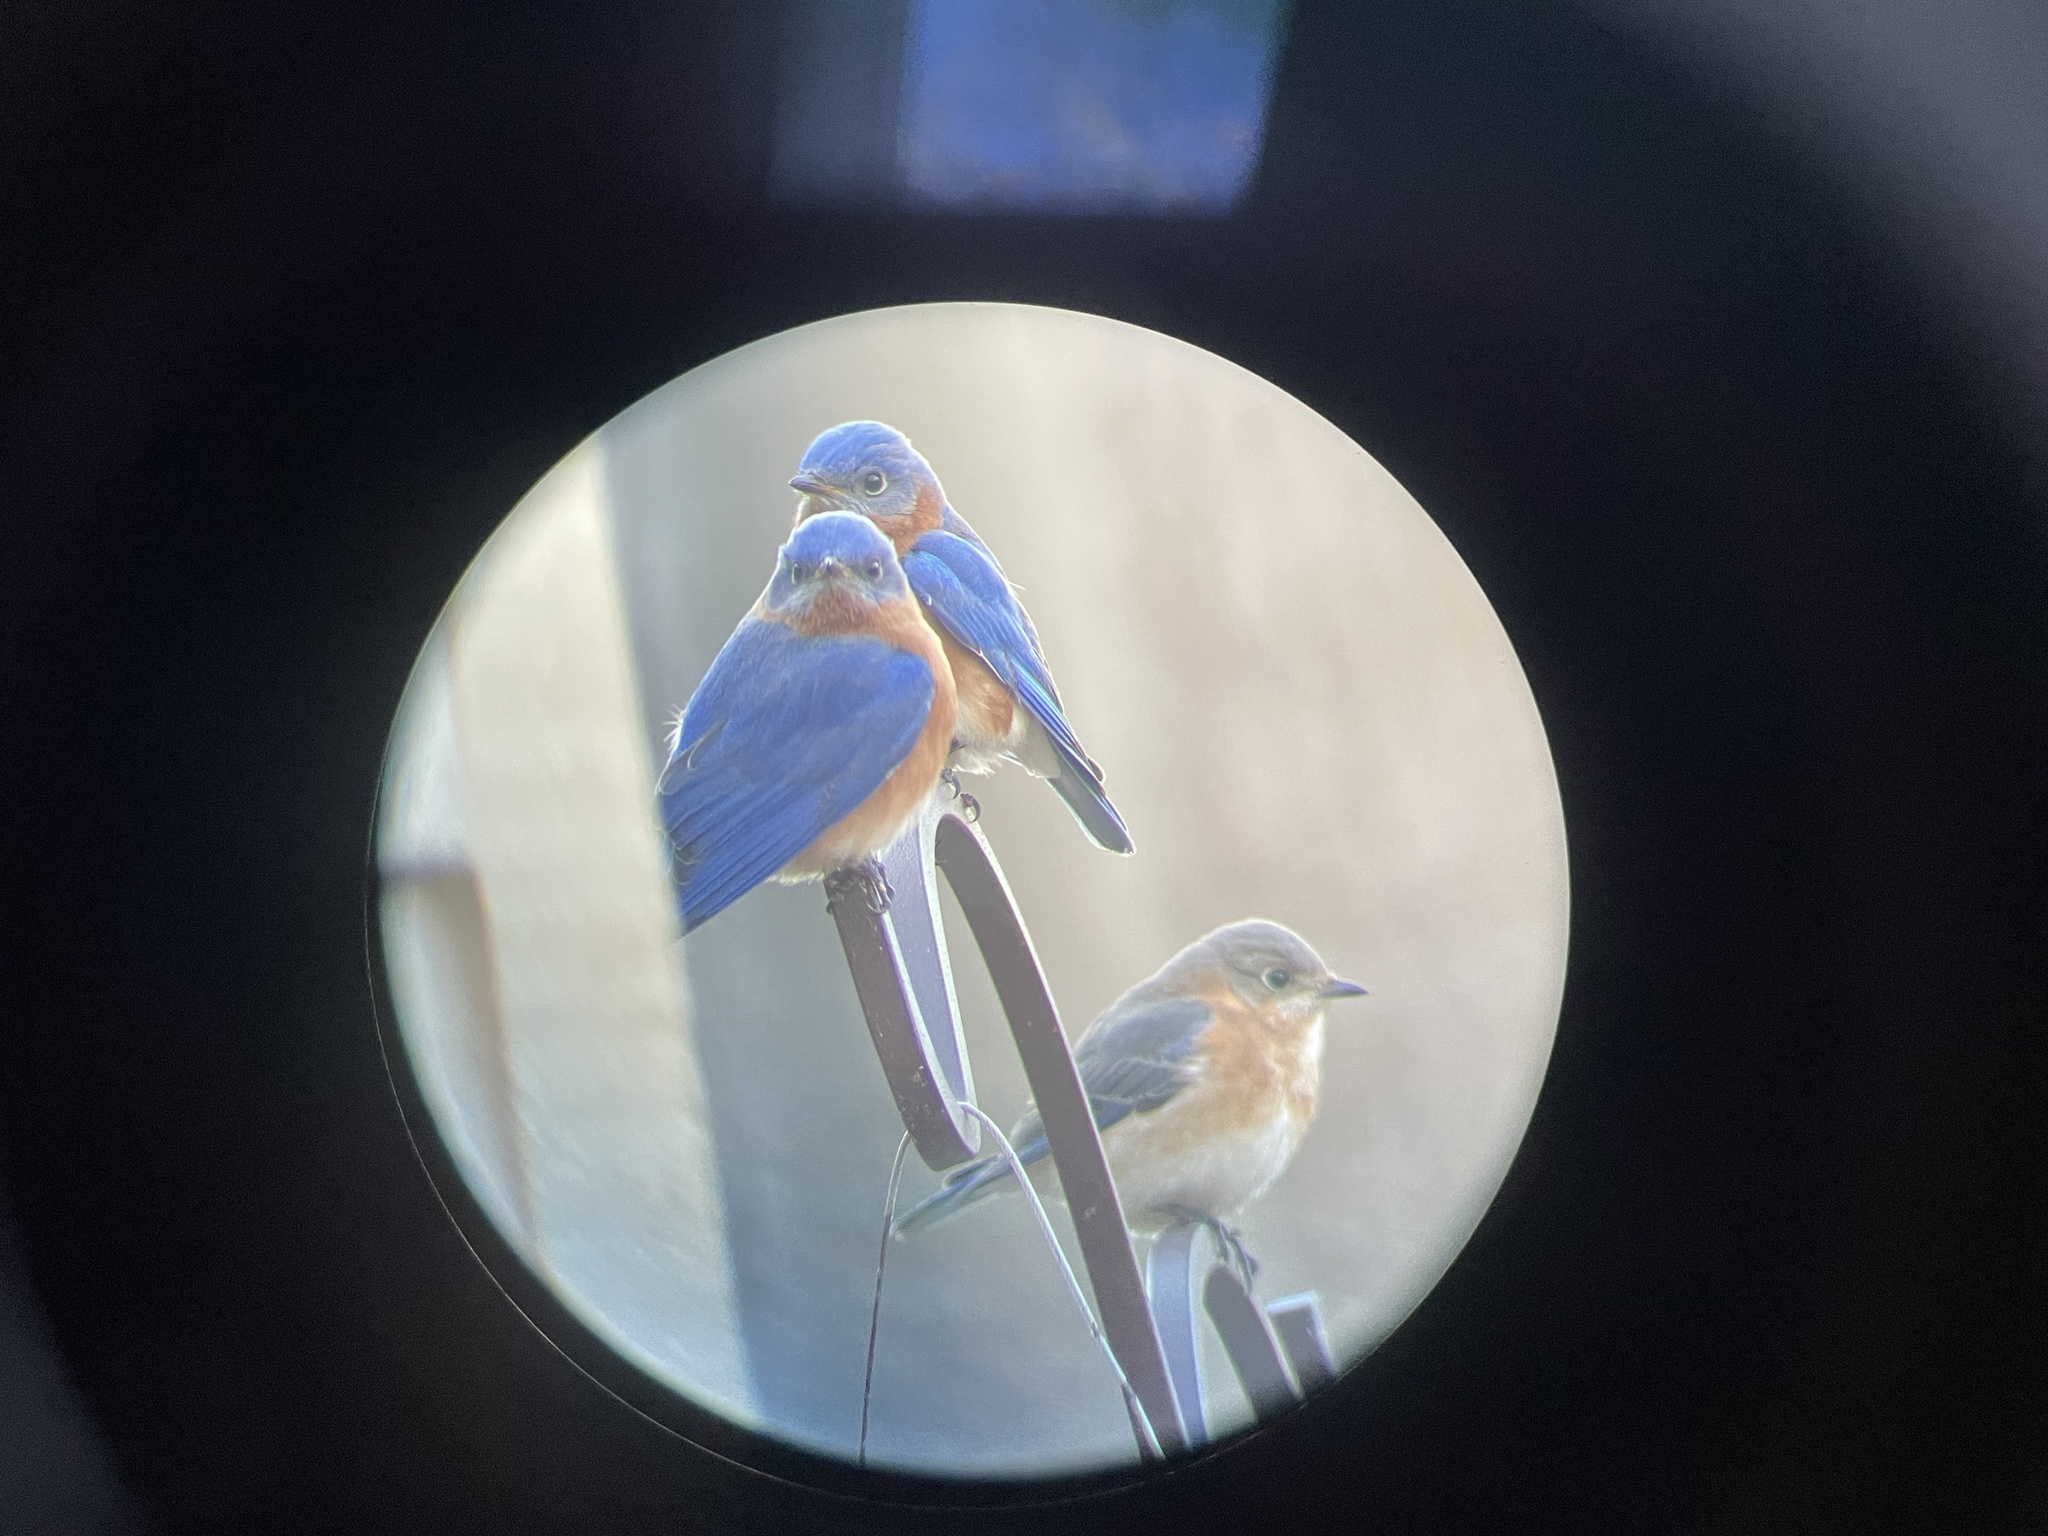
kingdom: Animalia
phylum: Chordata
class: Aves
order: Passeriformes
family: Turdidae
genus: Sialia
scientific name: Sialia sialis
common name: Eastern bluebird
